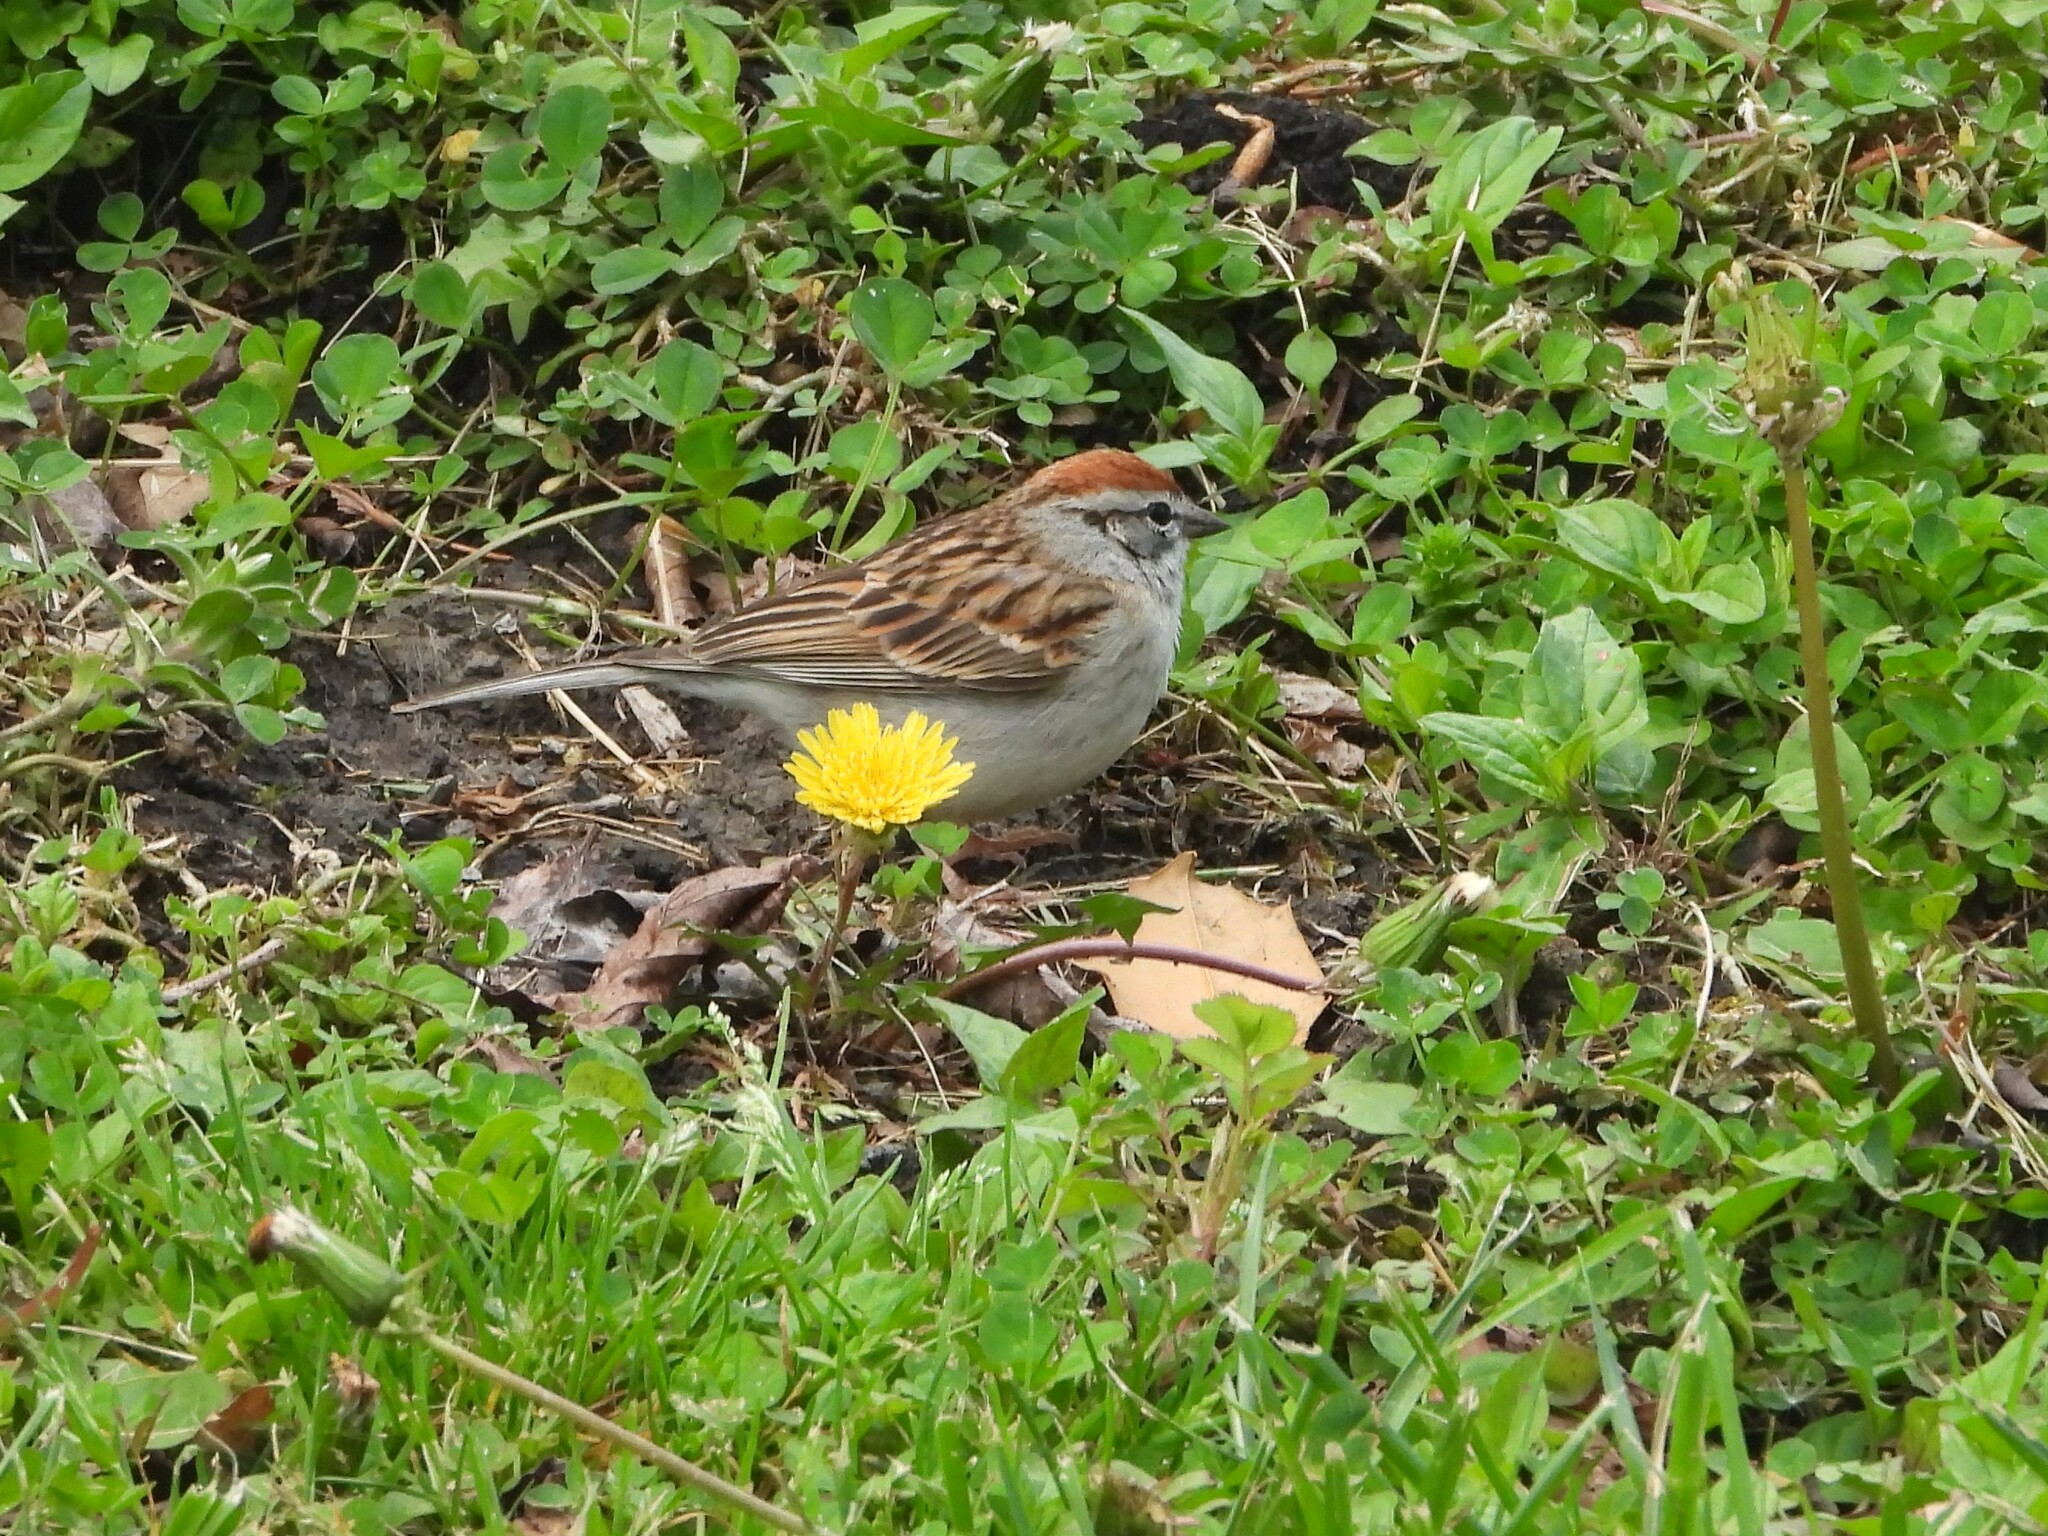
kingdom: Animalia
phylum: Chordata
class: Aves
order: Passeriformes
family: Passerellidae
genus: Spizella
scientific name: Spizella passerina
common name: Chipping sparrow
